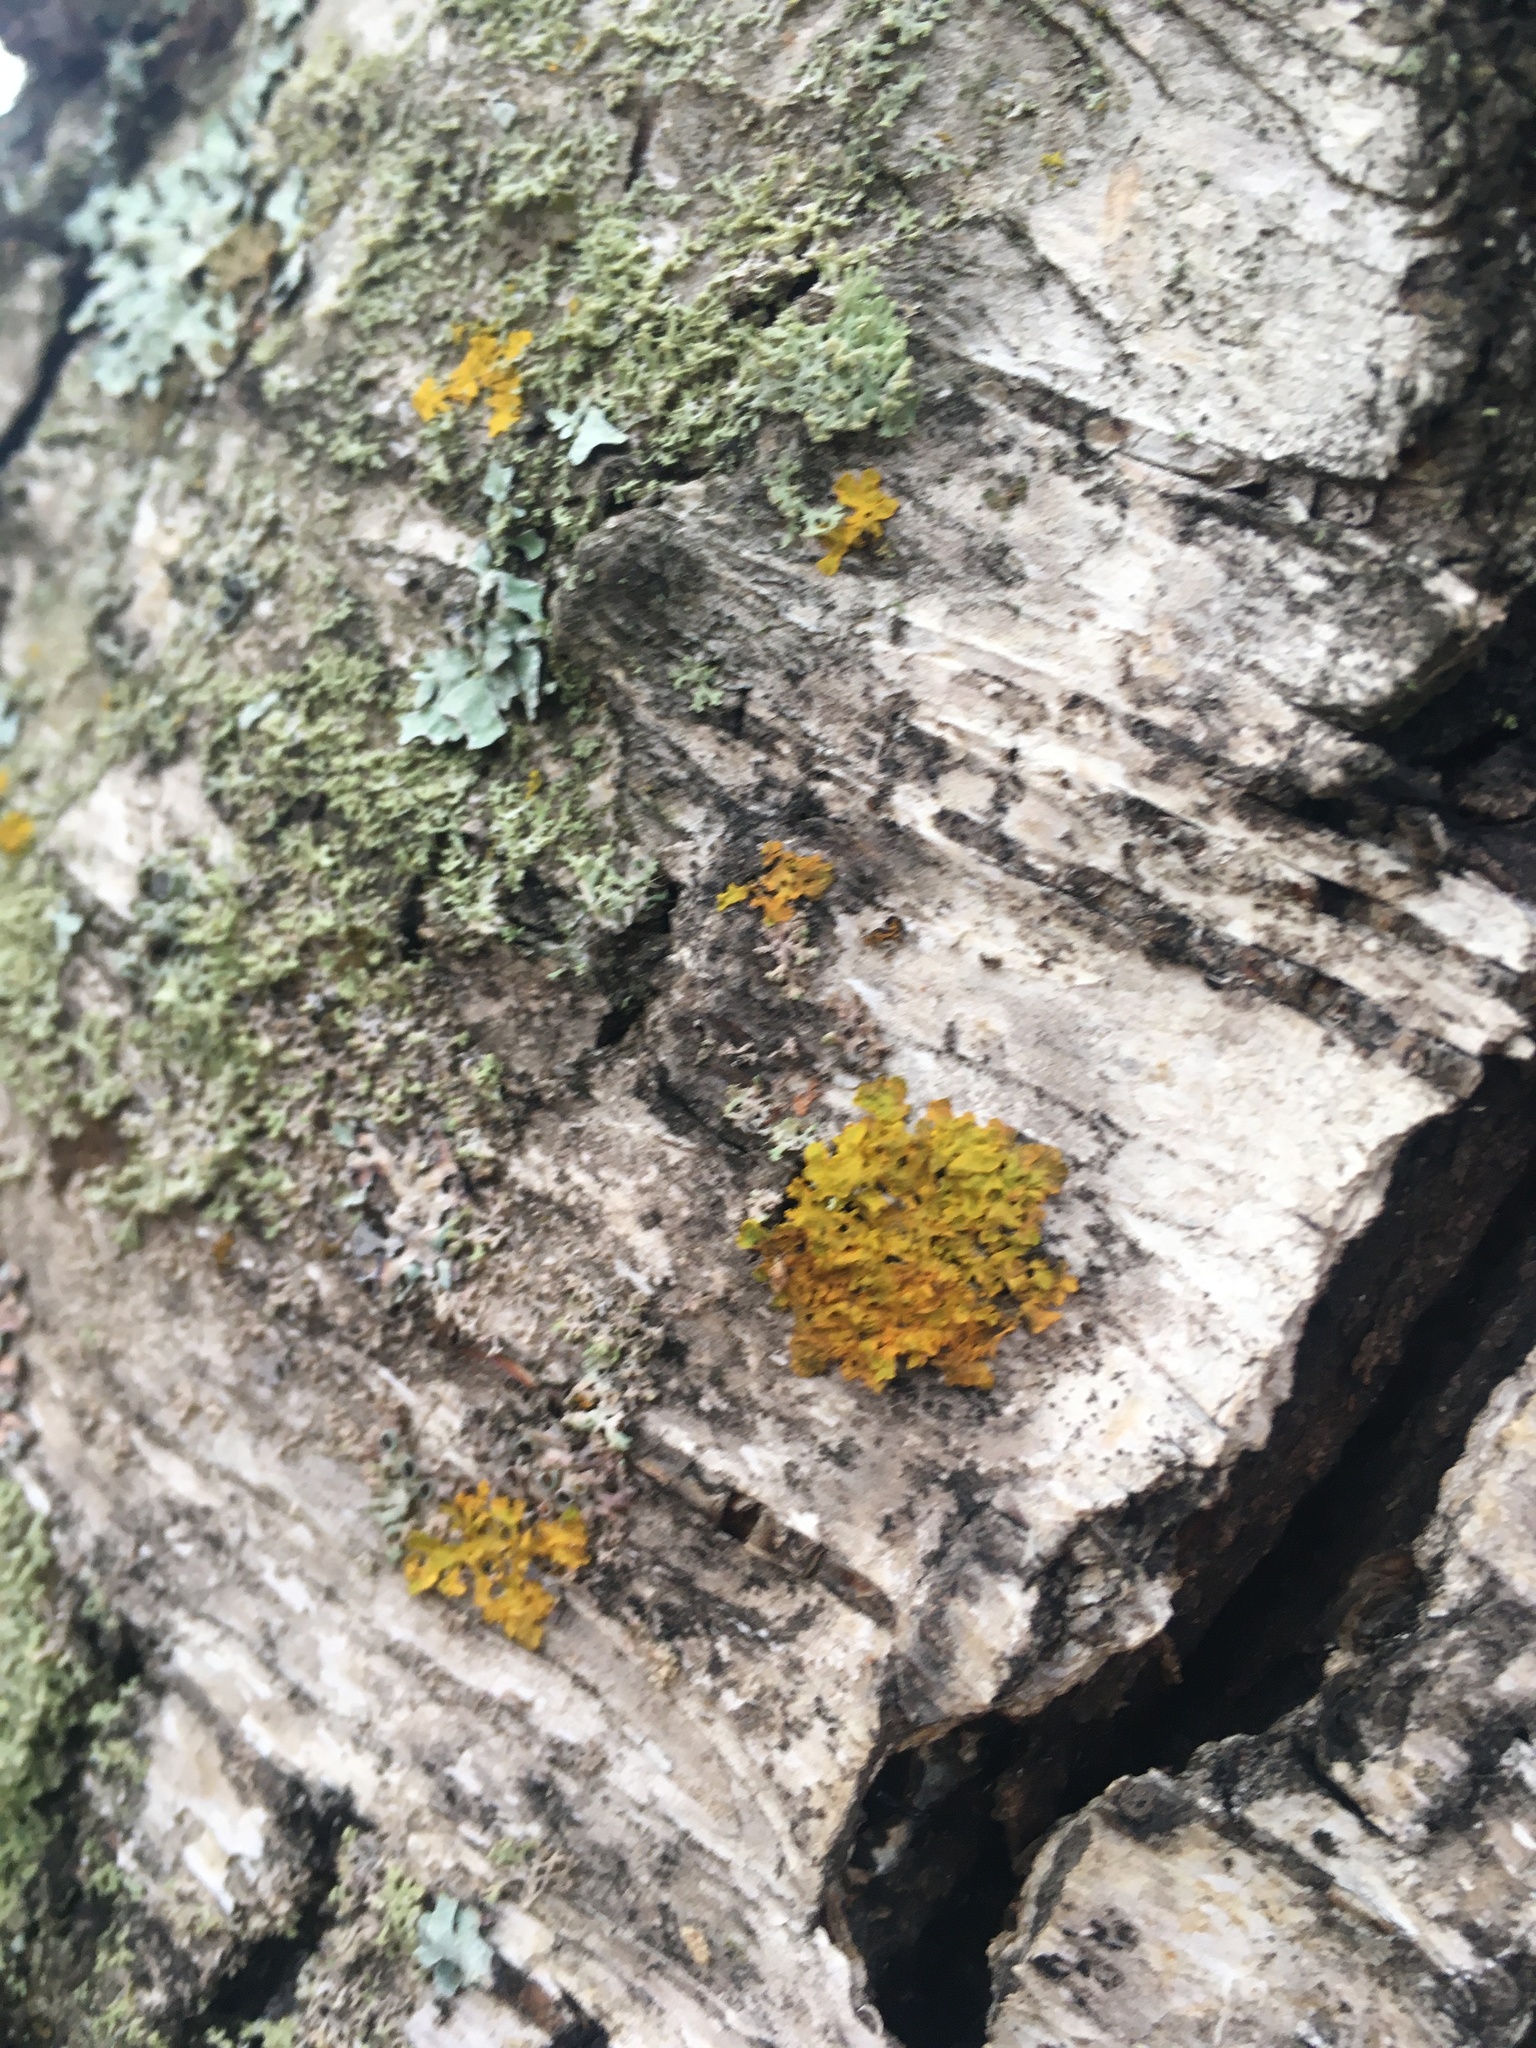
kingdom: Fungi
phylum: Ascomycota
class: Lecanoromycetes
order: Teloschistales
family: Teloschistaceae
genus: Xanthoria
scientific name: Xanthoria parietina
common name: Common orange lichen
